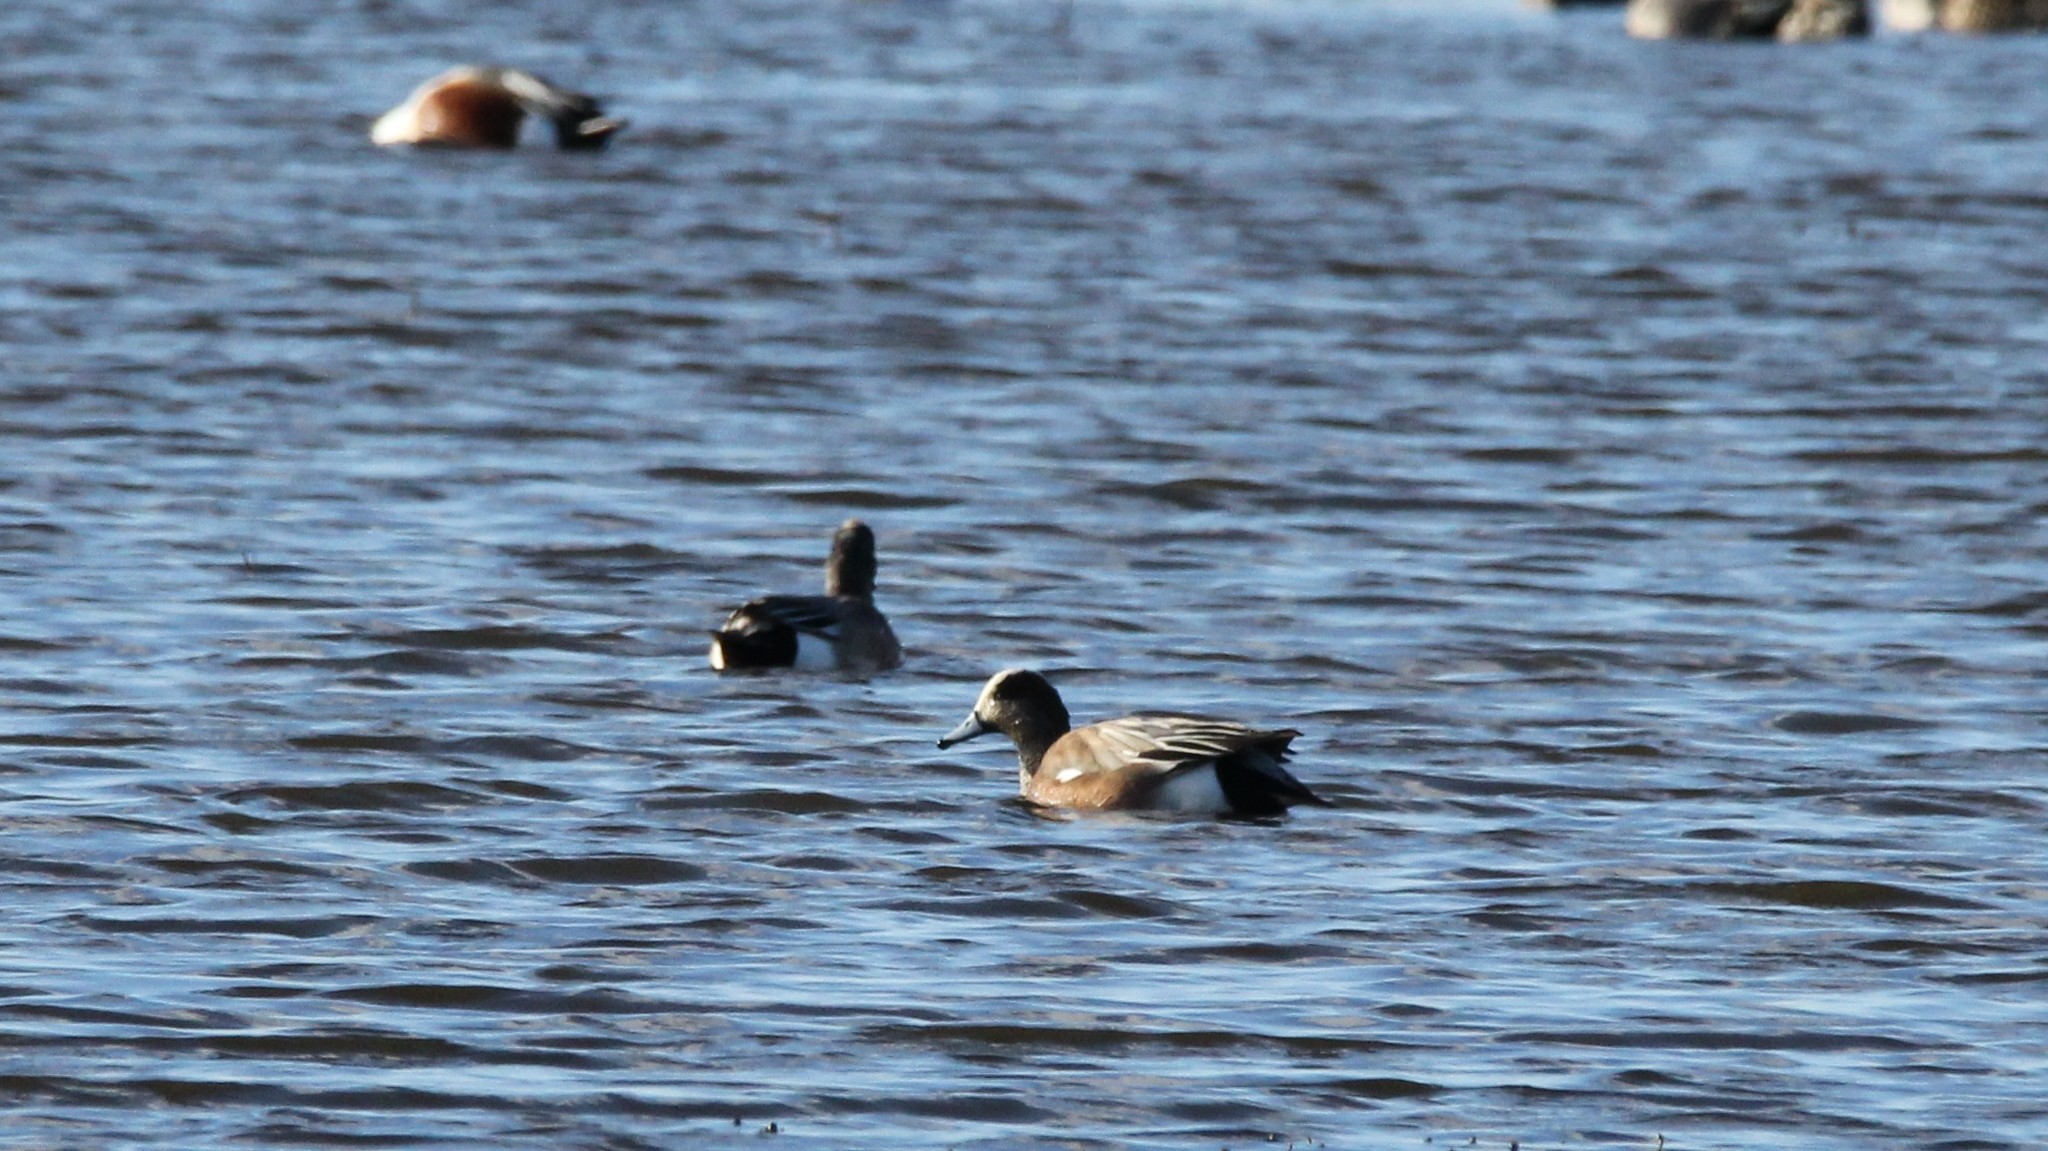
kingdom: Animalia
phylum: Chordata
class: Aves
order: Anseriformes
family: Anatidae
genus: Mareca
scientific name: Mareca americana
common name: American wigeon
